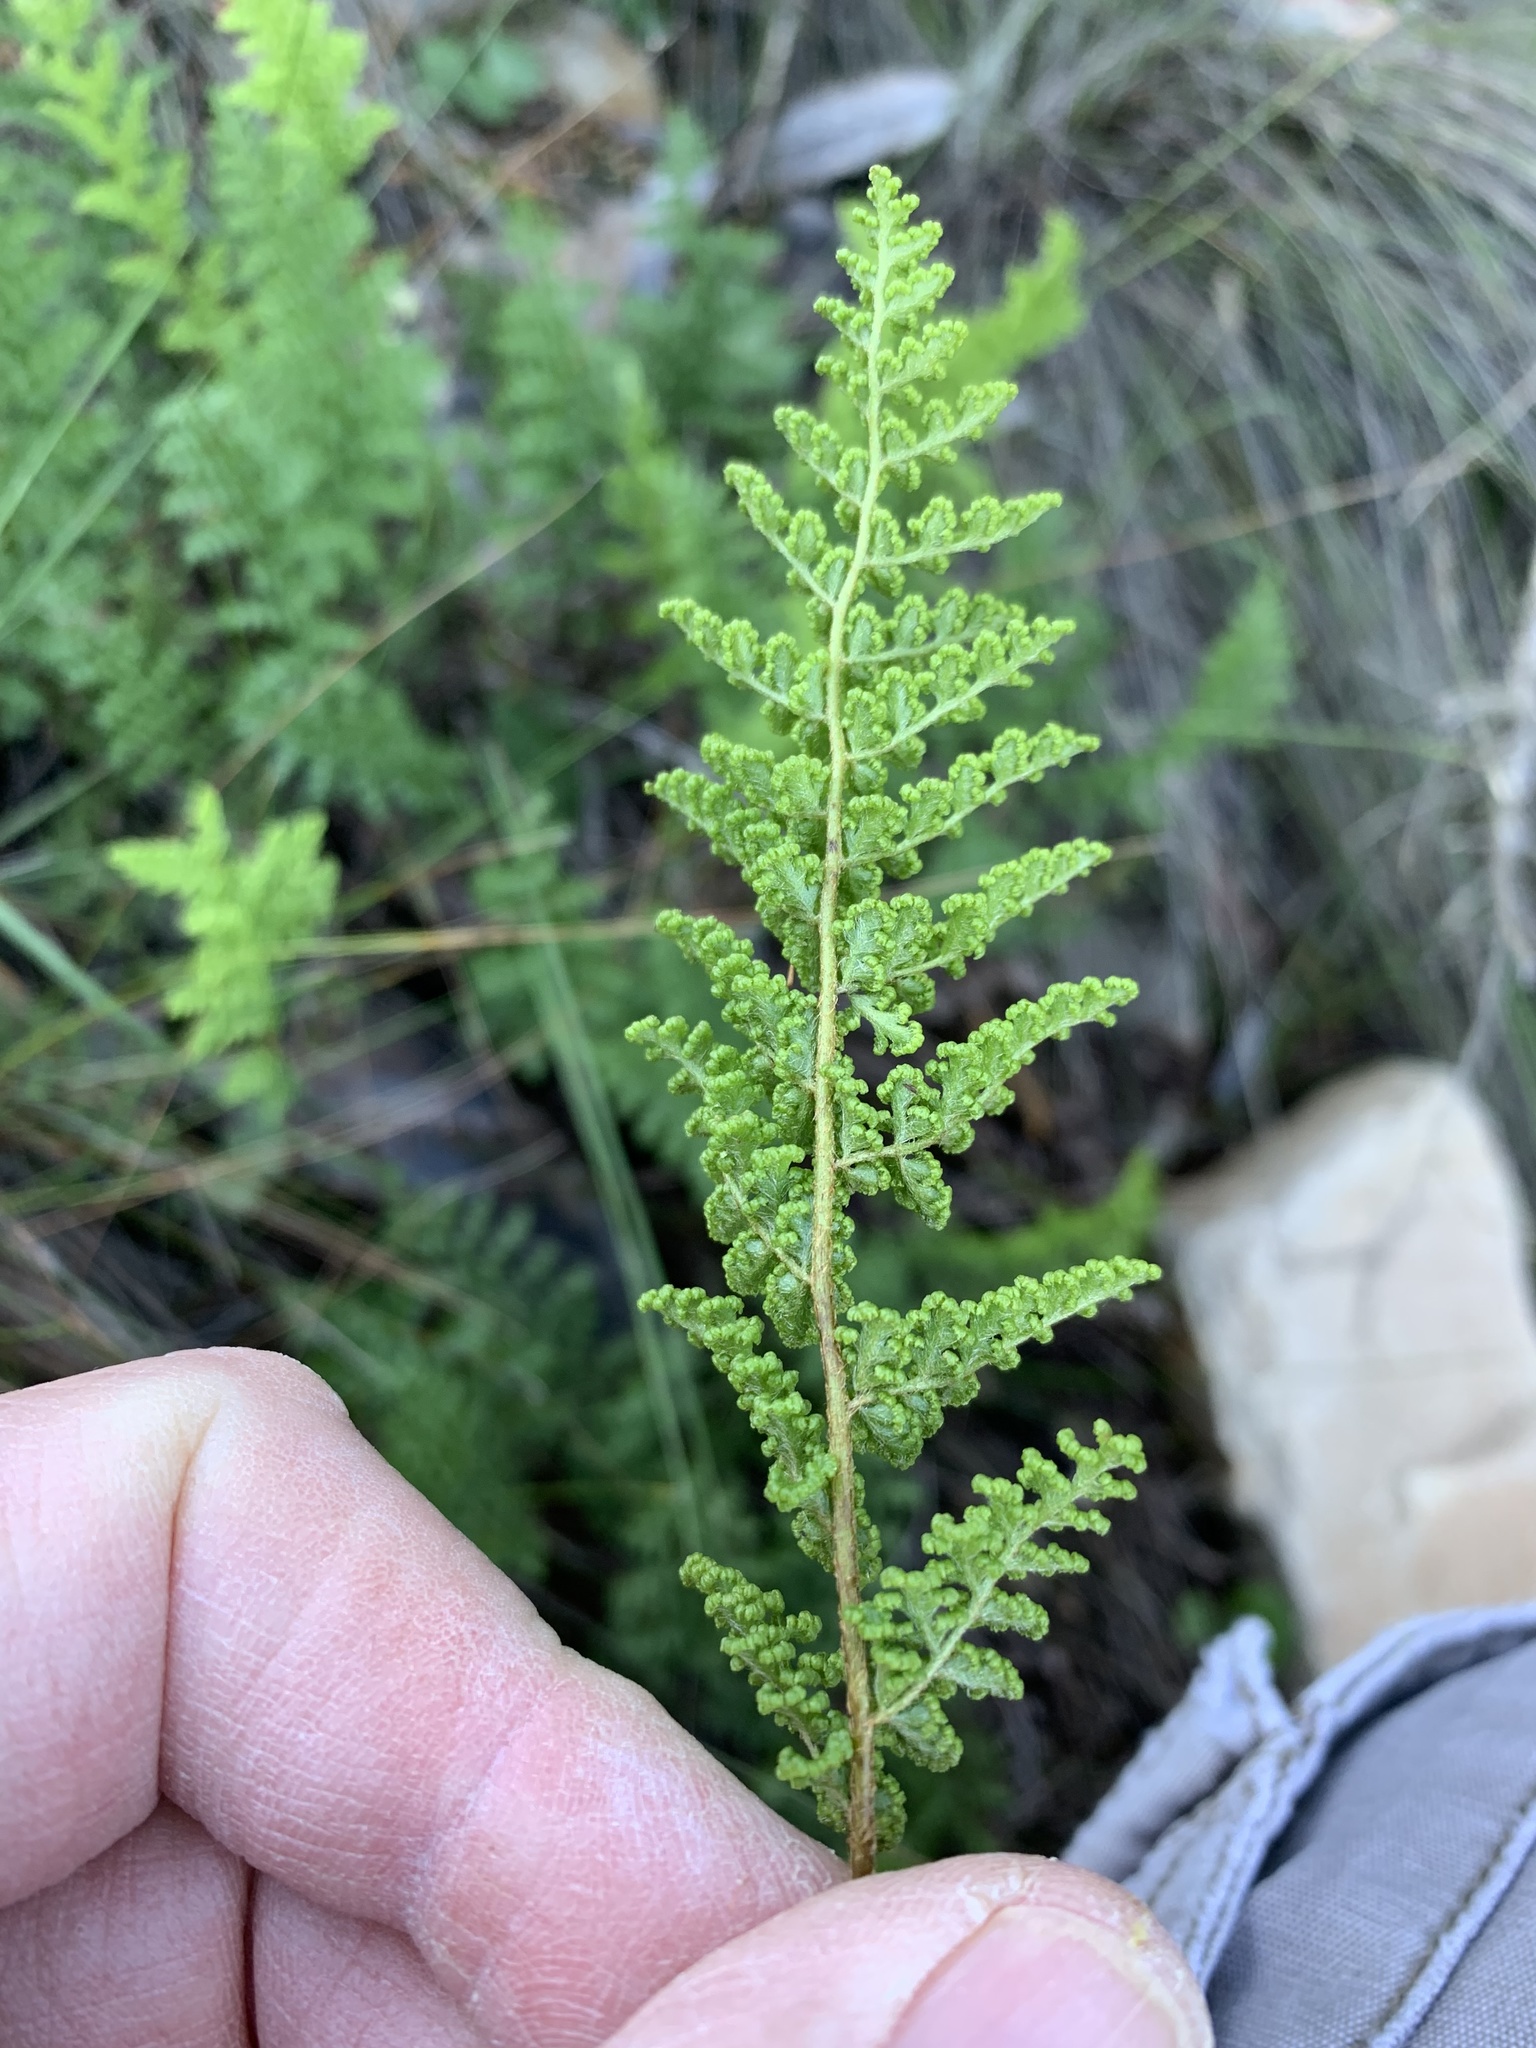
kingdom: Plantae
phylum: Tracheophyta
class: Polypodiopsida
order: Schizaeales
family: Anemiaceae
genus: Anemia
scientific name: Anemia caffrorum
